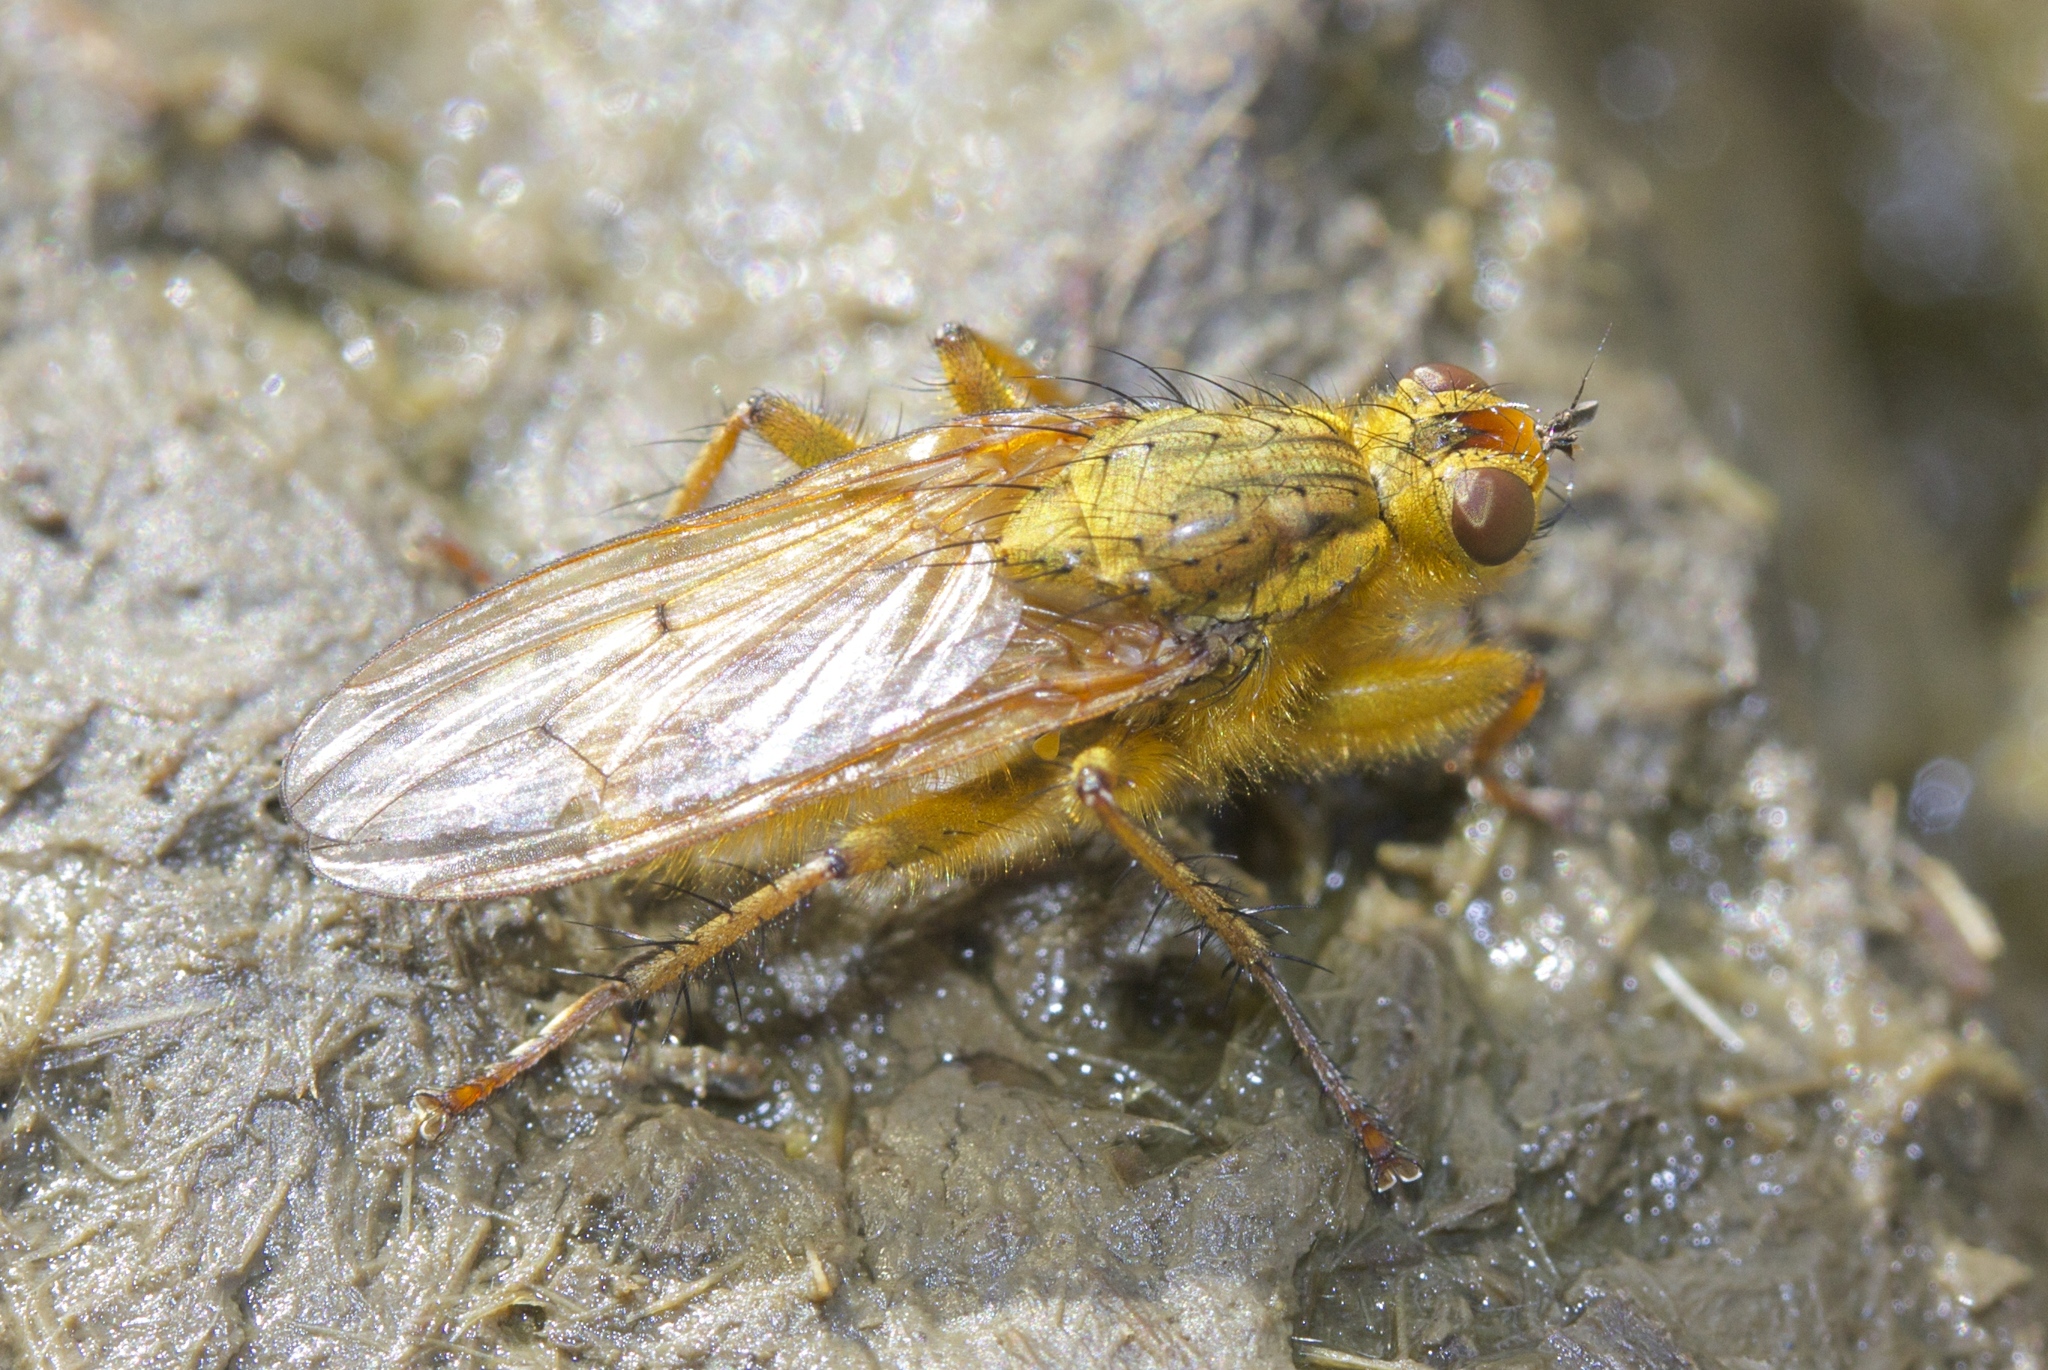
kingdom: Animalia
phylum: Arthropoda
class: Insecta
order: Diptera
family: Scathophagidae
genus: Scathophaga
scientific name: Scathophaga stercoraria
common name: Yellow dung fly
